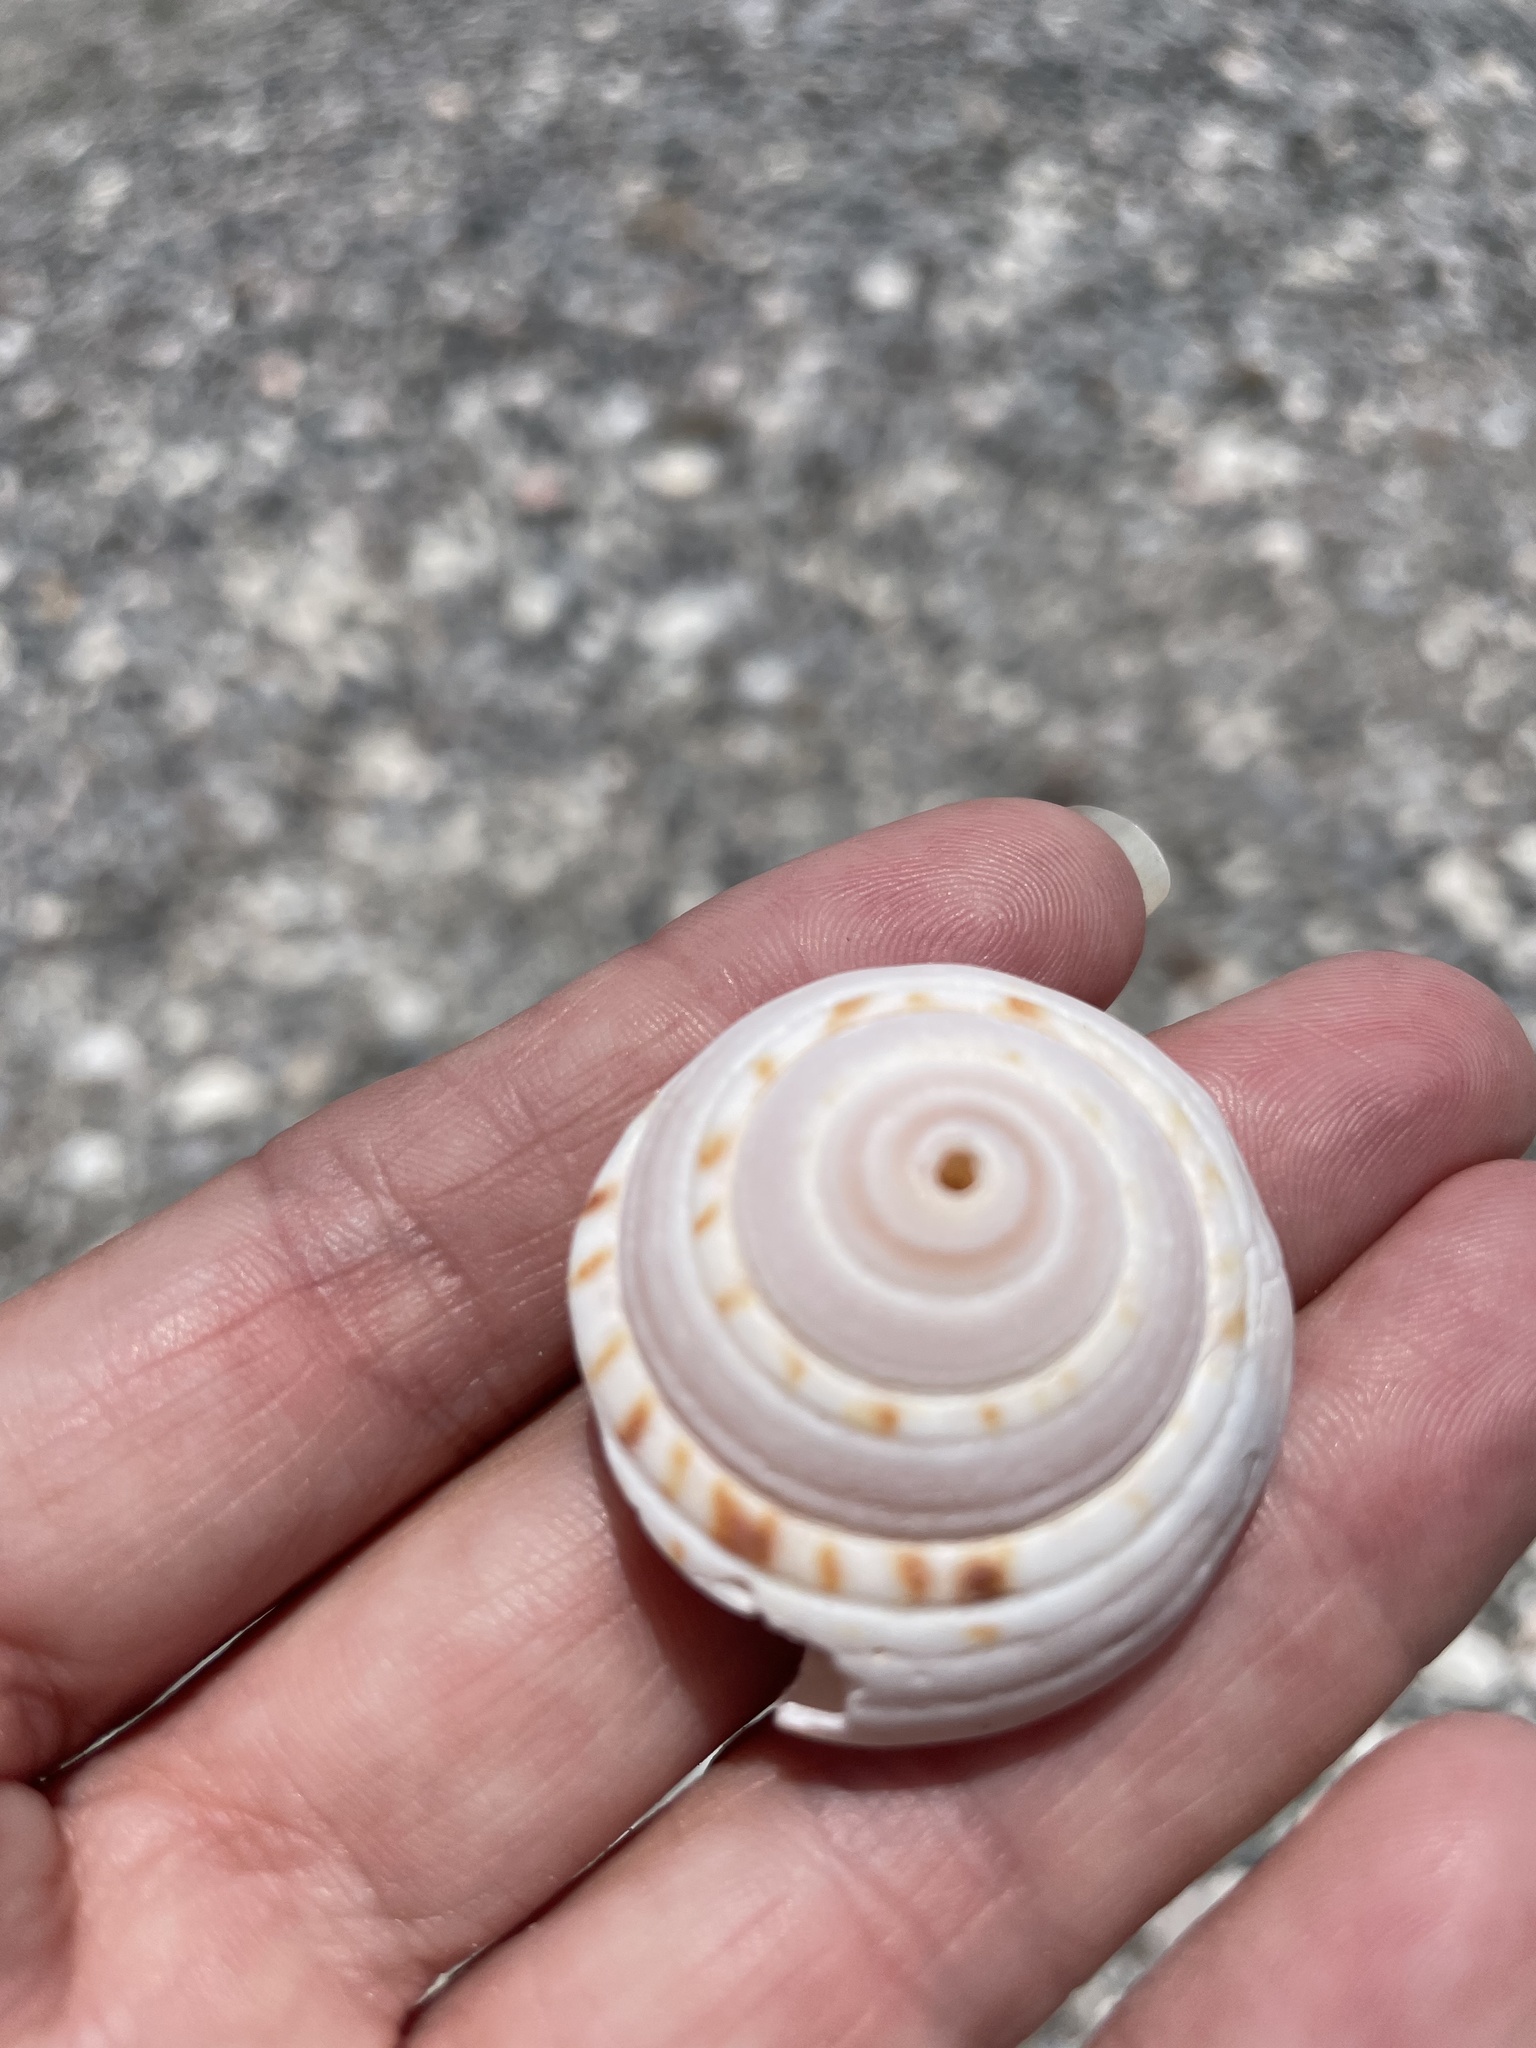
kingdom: Animalia
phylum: Mollusca
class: Gastropoda
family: Architectonicidae
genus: Architectonica
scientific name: Architectonica nobilis
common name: Common sundial
